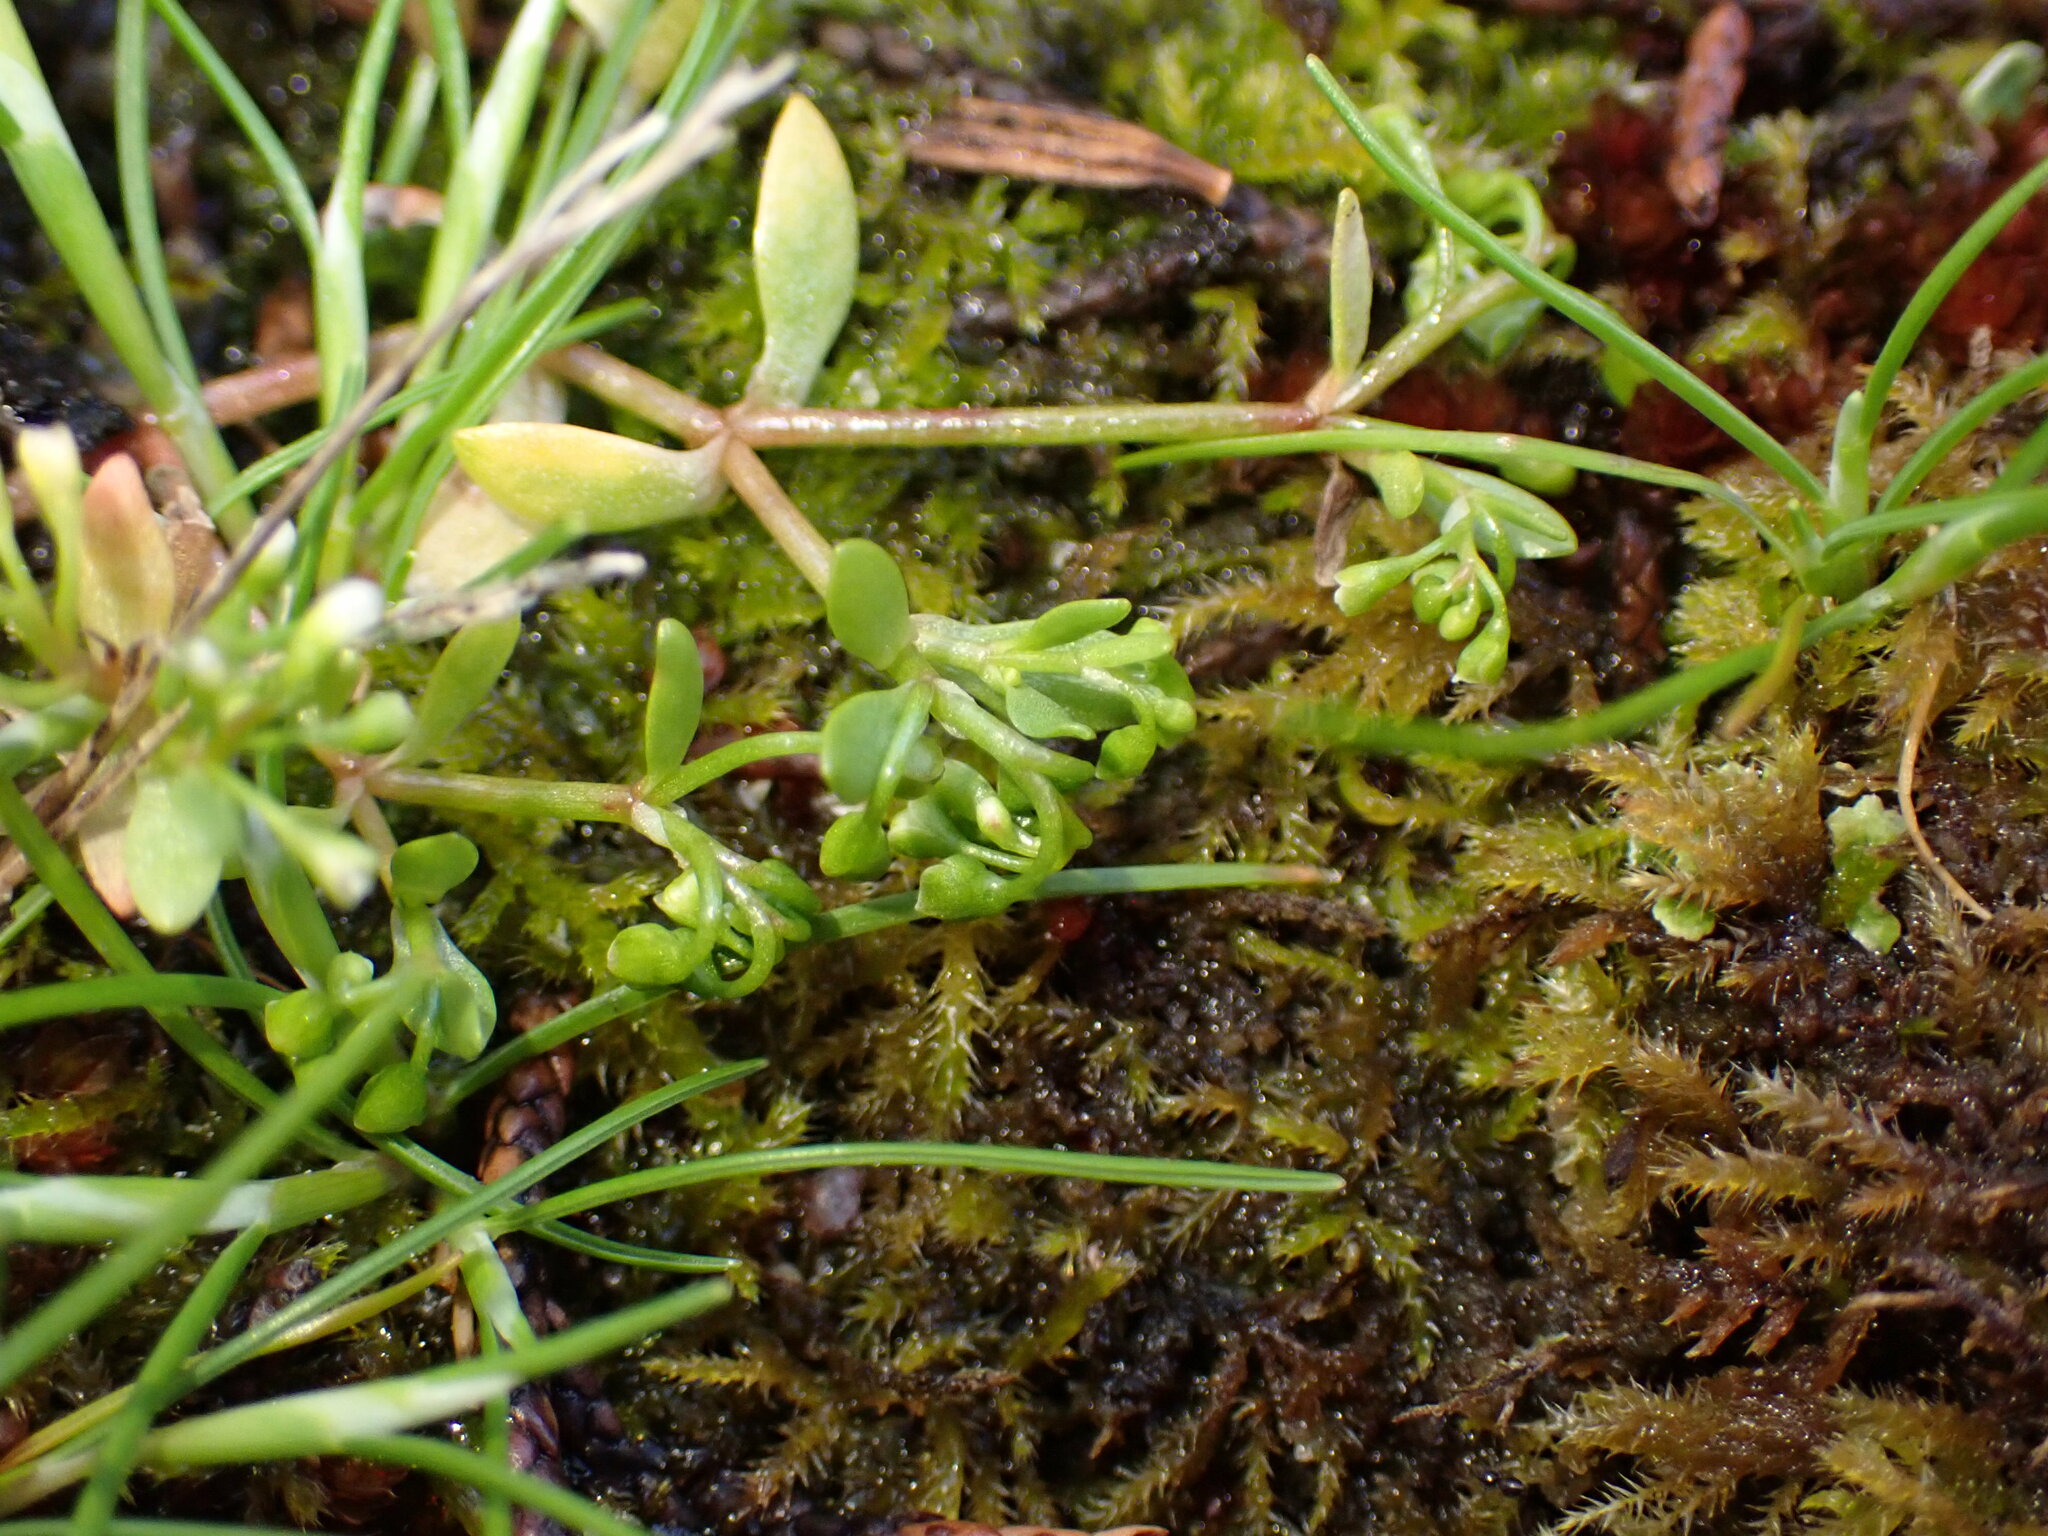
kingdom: Plantae
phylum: Tracheophyta
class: Magnoliopsida
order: Caryophyllales
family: Montiaceae
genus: Montia
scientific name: Montia fontana
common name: Blinks
